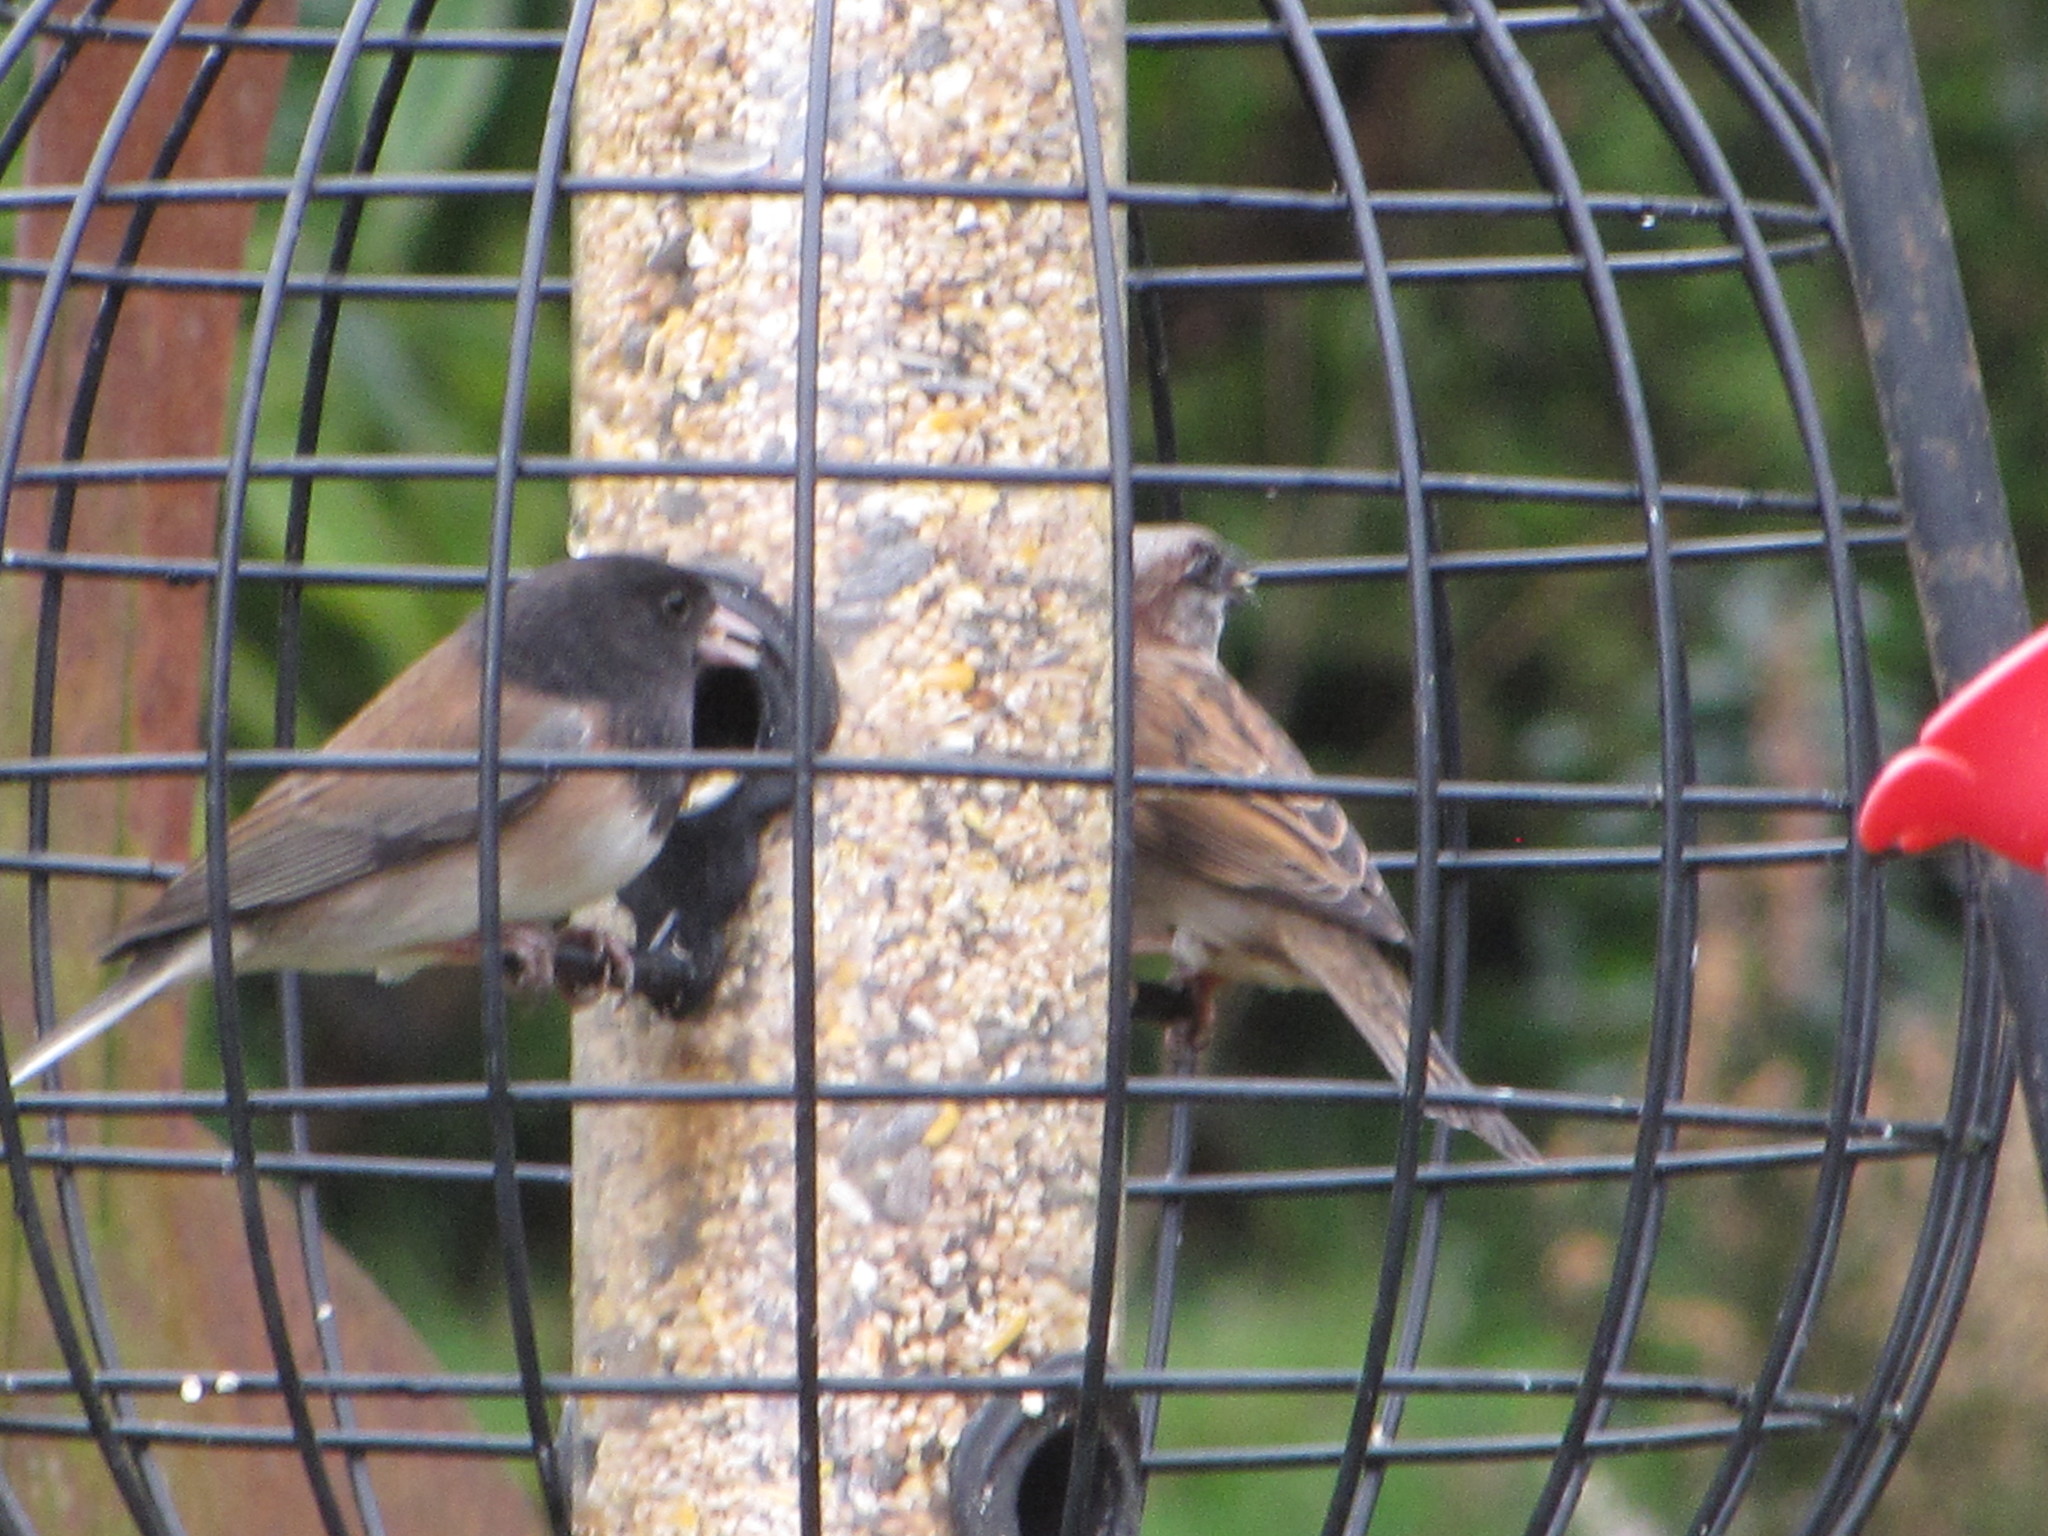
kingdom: Animalia
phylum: Chordata
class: Aves
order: Passeriformes
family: Passeridae
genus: Passer
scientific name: Passer domesticus
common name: House sparrow
